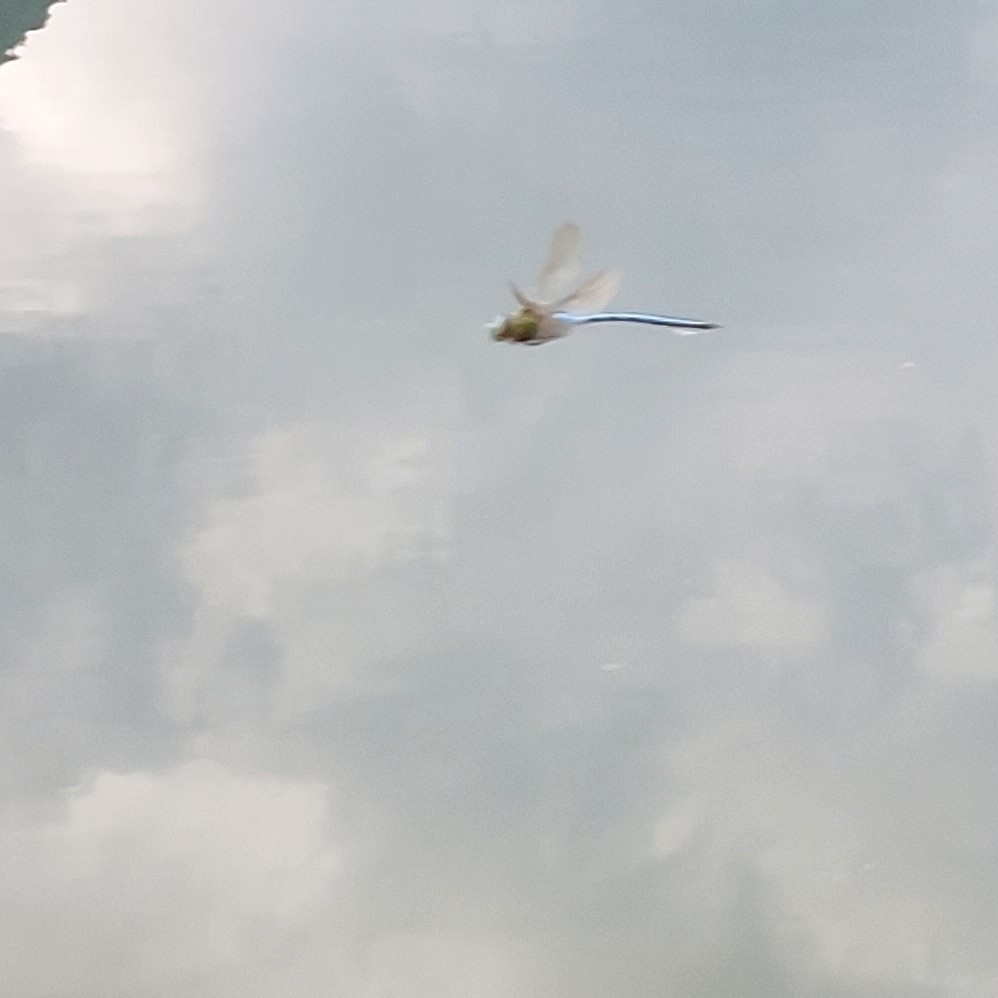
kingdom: Animalia
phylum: Arthropoda
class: Insecta
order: Odonata
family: Aeshnidae
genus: Anax
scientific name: Anax imperator
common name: Emperor dragonfly
